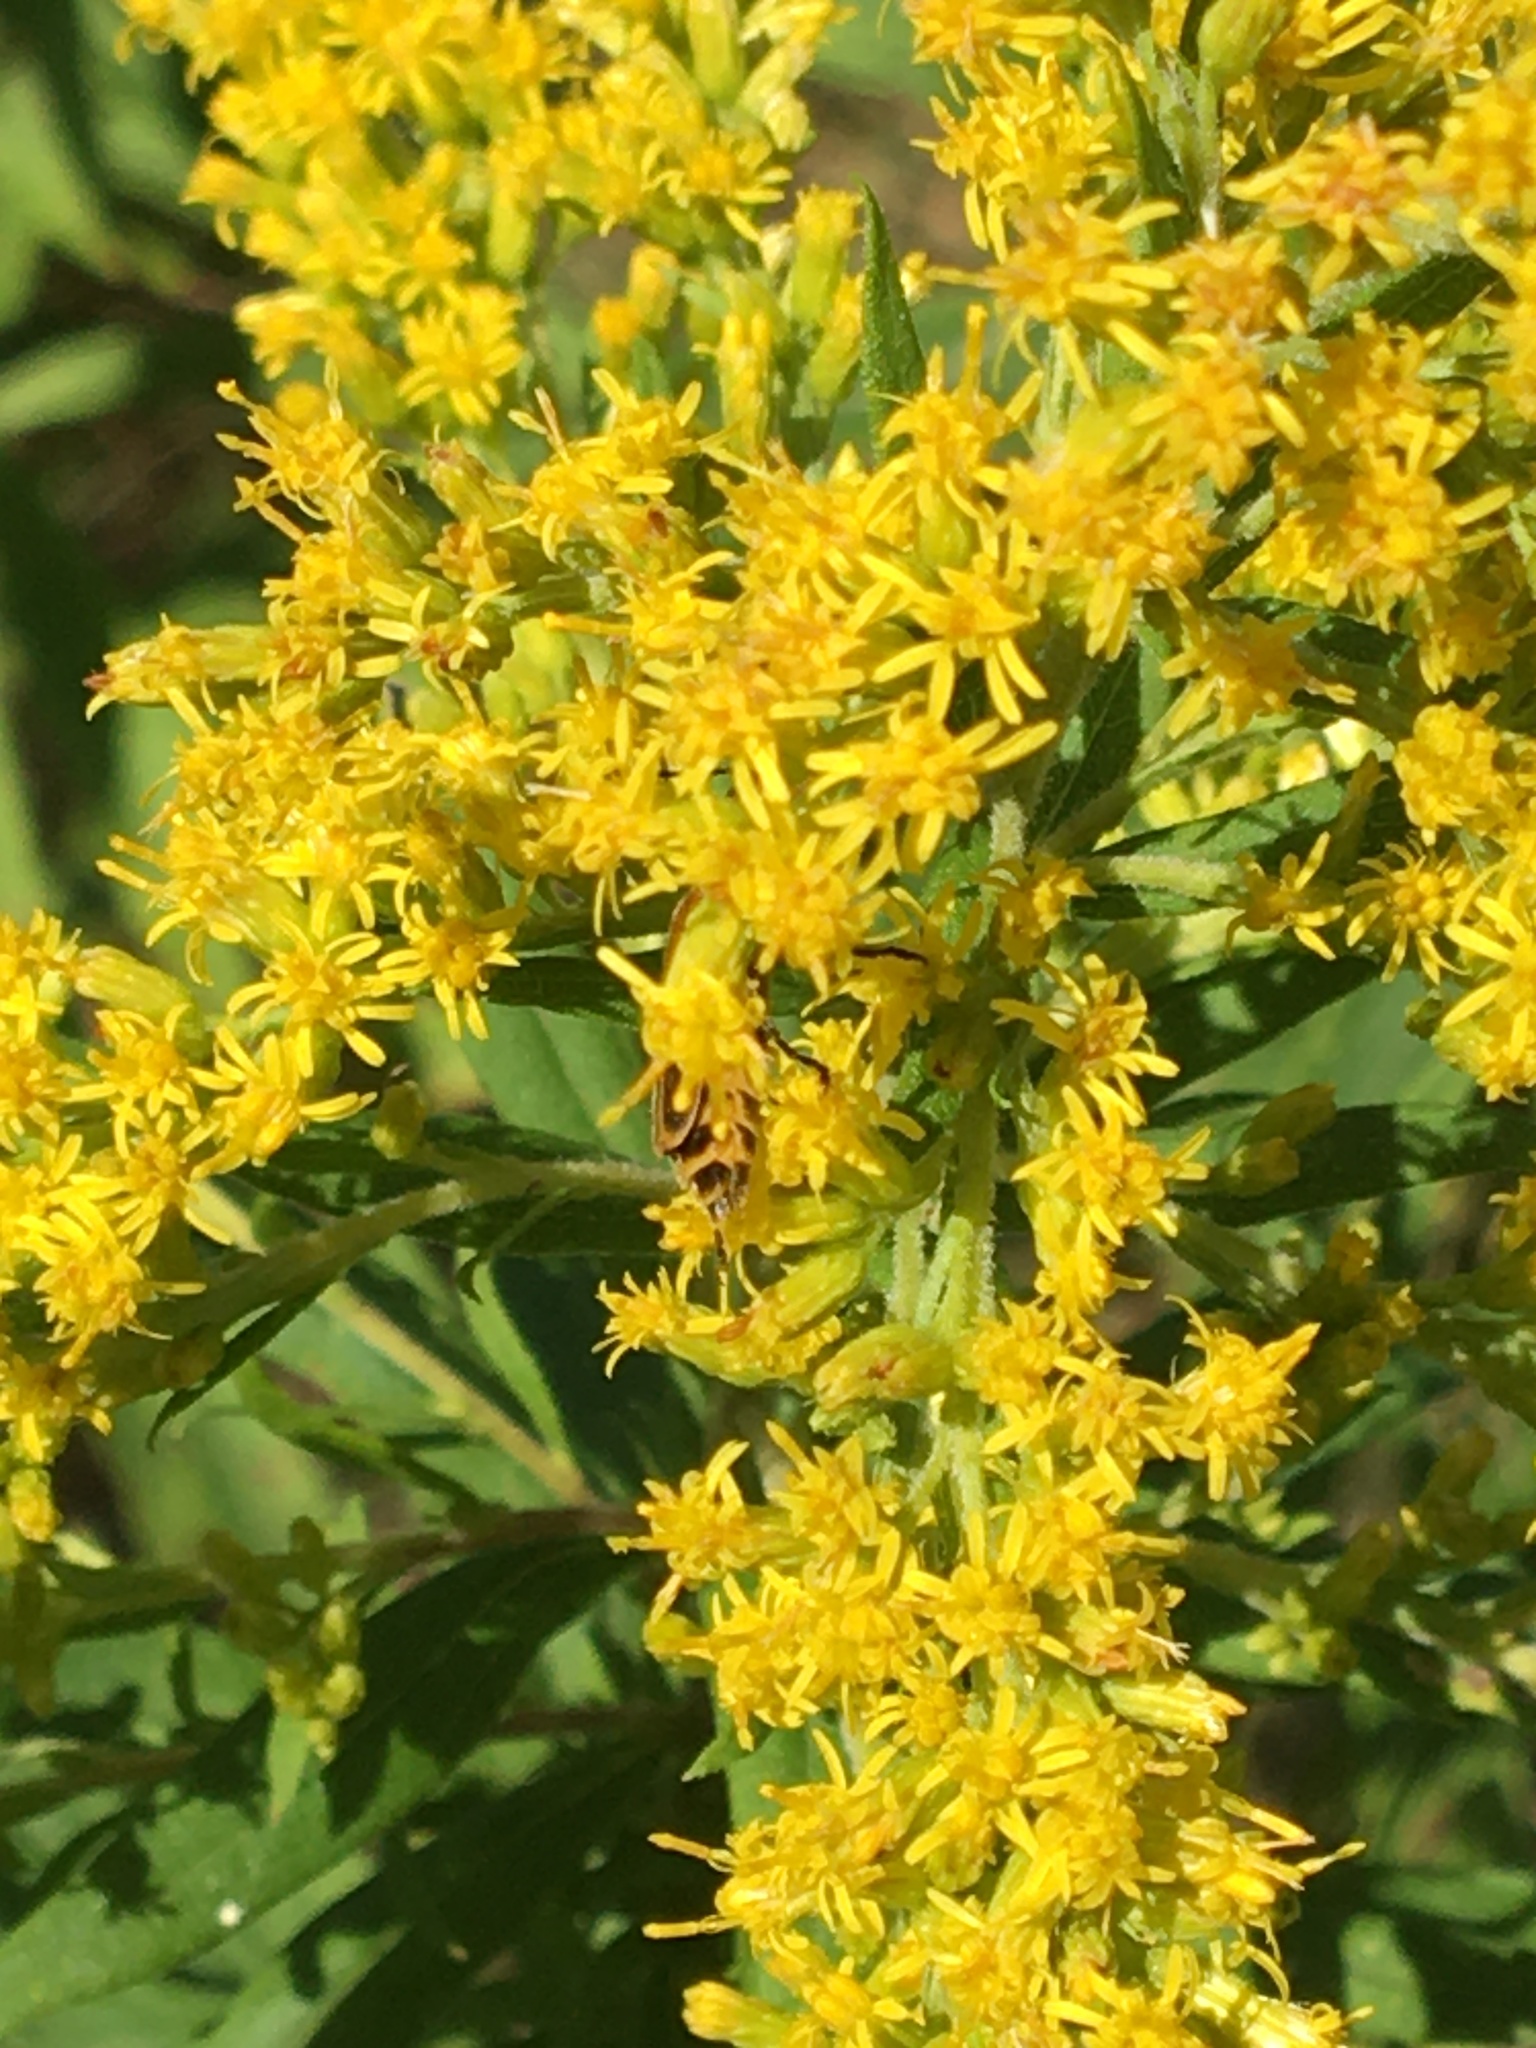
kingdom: Animalia
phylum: Arthropoda
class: Insecta
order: Coleoptera
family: Cantharidae
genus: Chauliognathus
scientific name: Chauliognathus pensylvanicus
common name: Goldenrod soldier beetle
